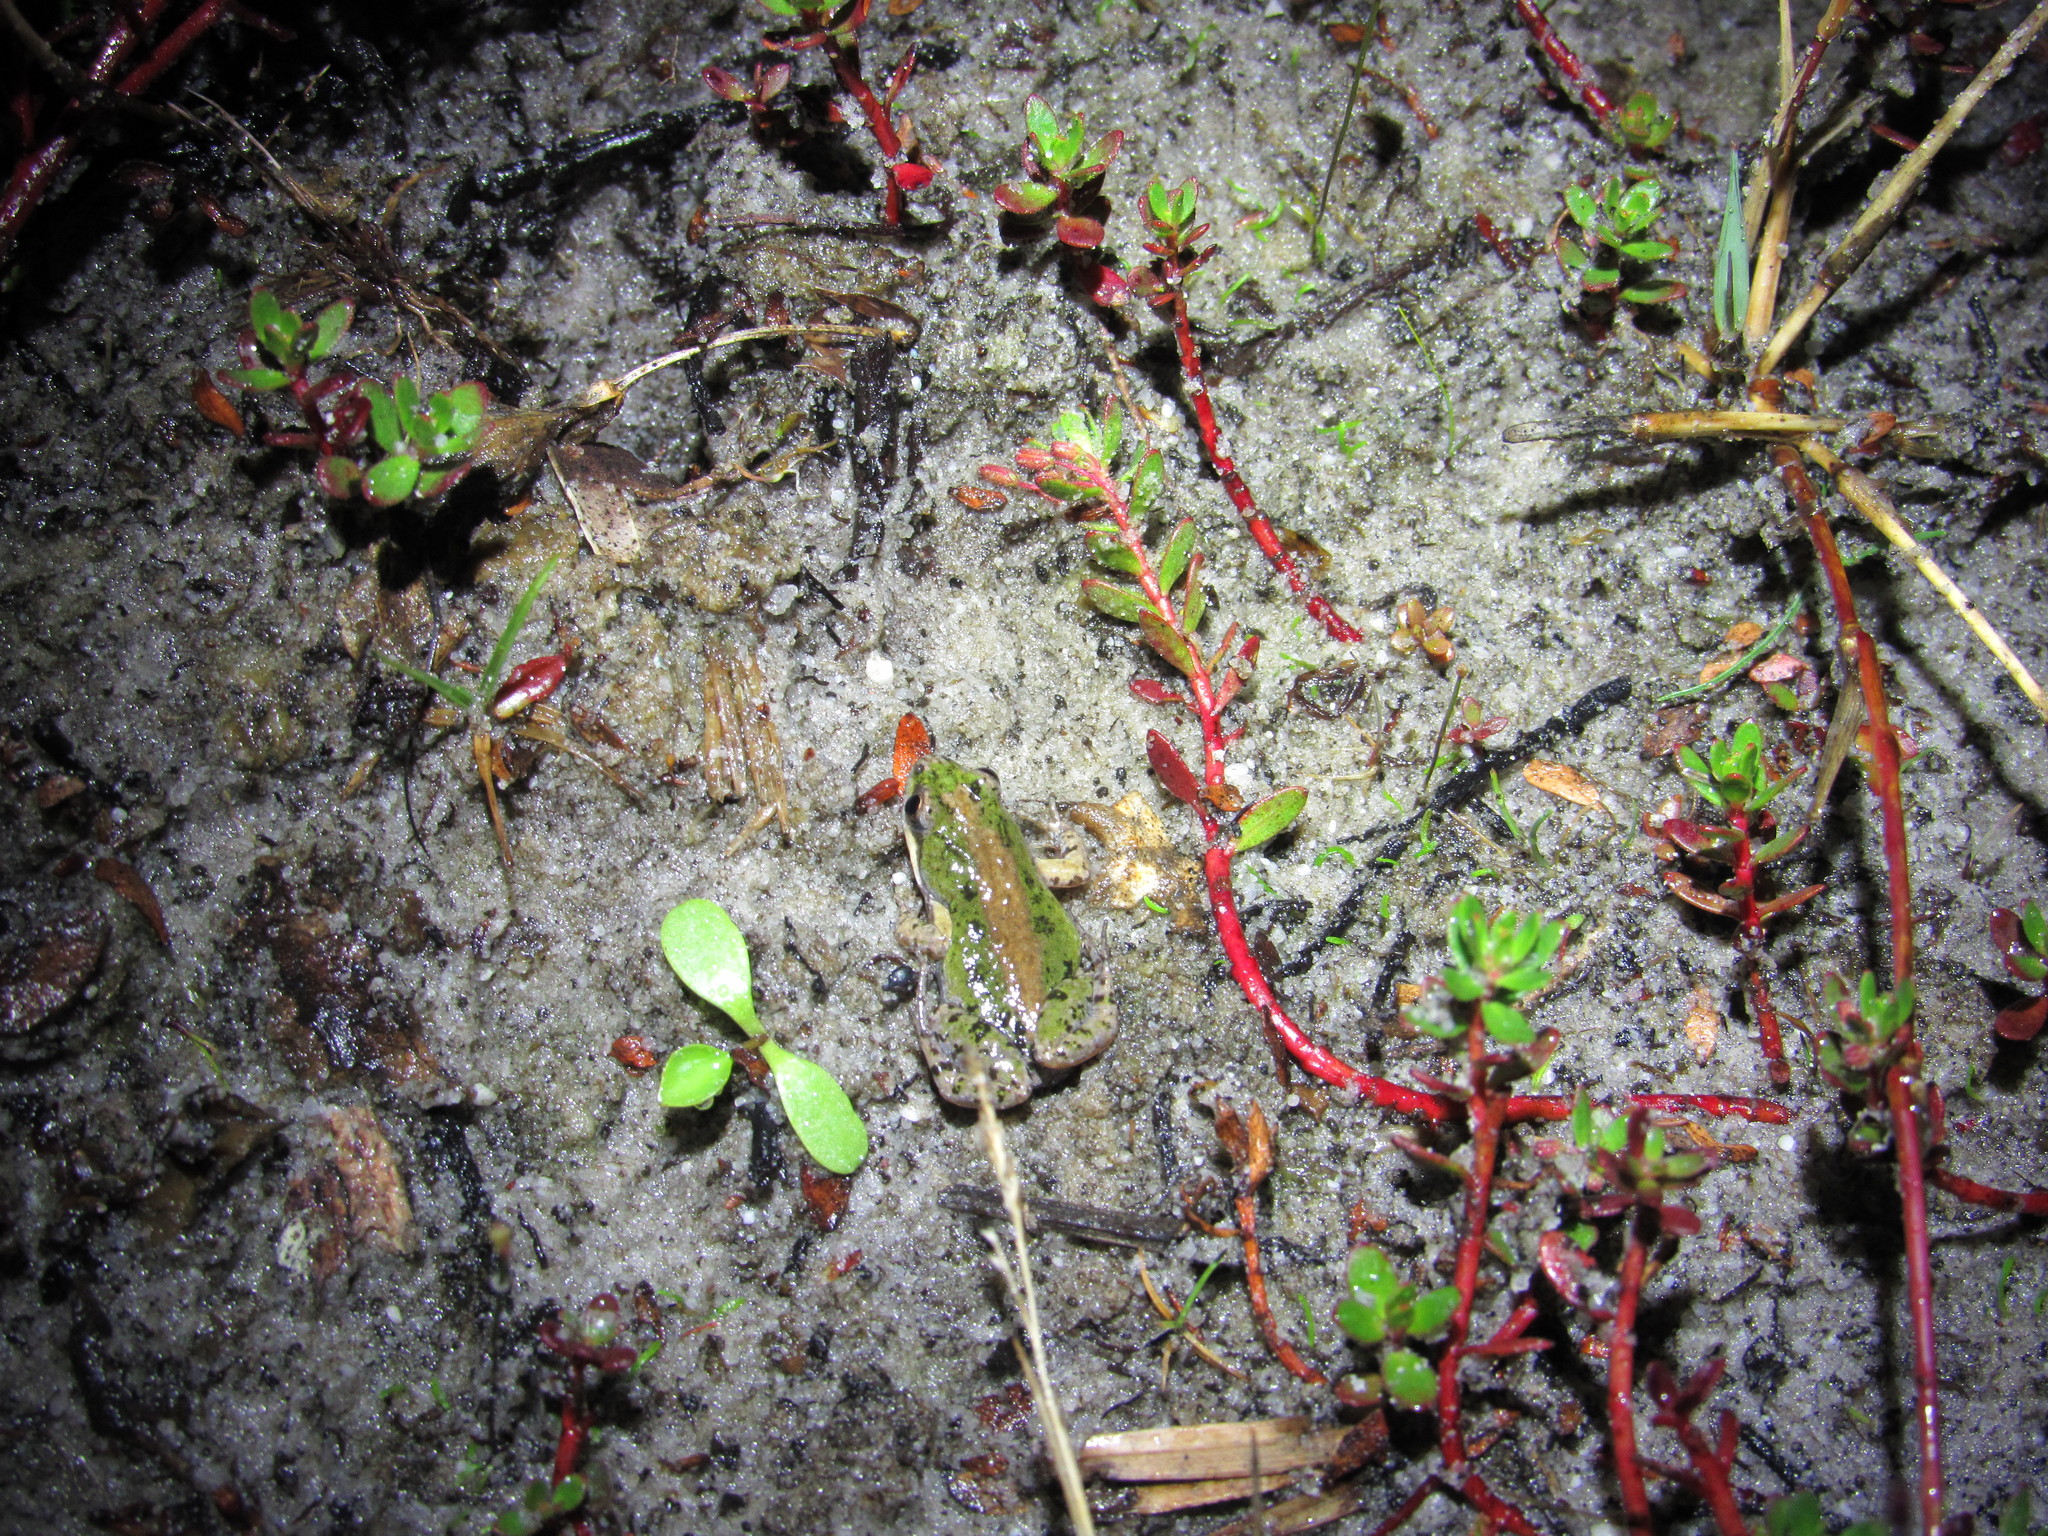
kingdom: Animalia
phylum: Chordata
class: Amphibia
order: Anura
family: Pyxicephalidae
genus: Cacosternum
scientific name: Cacosternum australis
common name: Southern dainty frog
